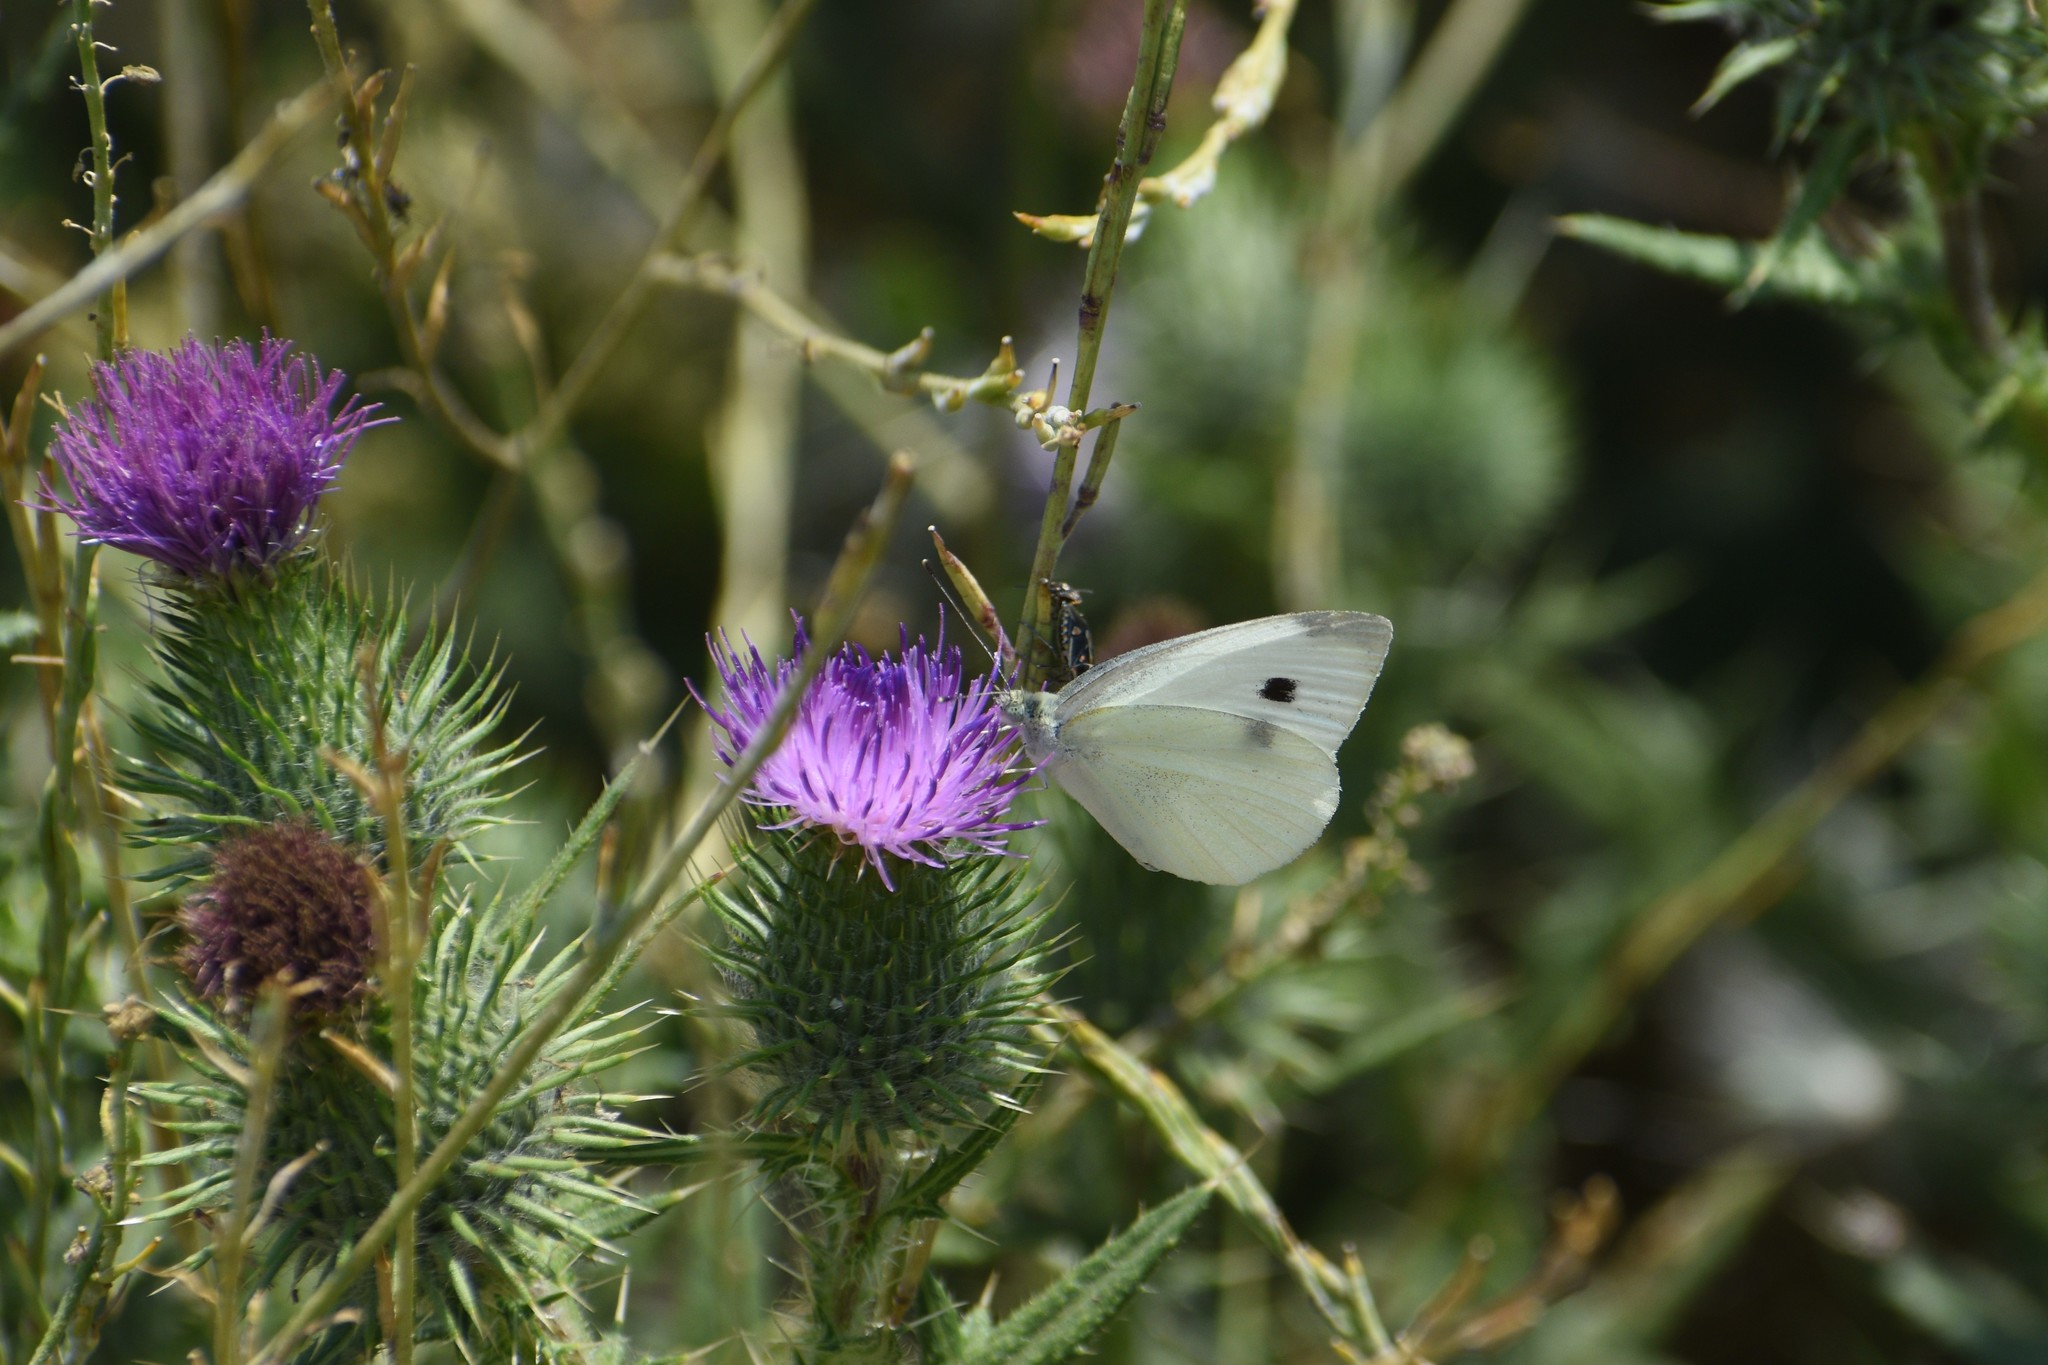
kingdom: Animalia
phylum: Arthropoda
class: Insecta
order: Lepidoptera
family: Pieridae
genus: Pieris
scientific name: Pieris rapae
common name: Small white
